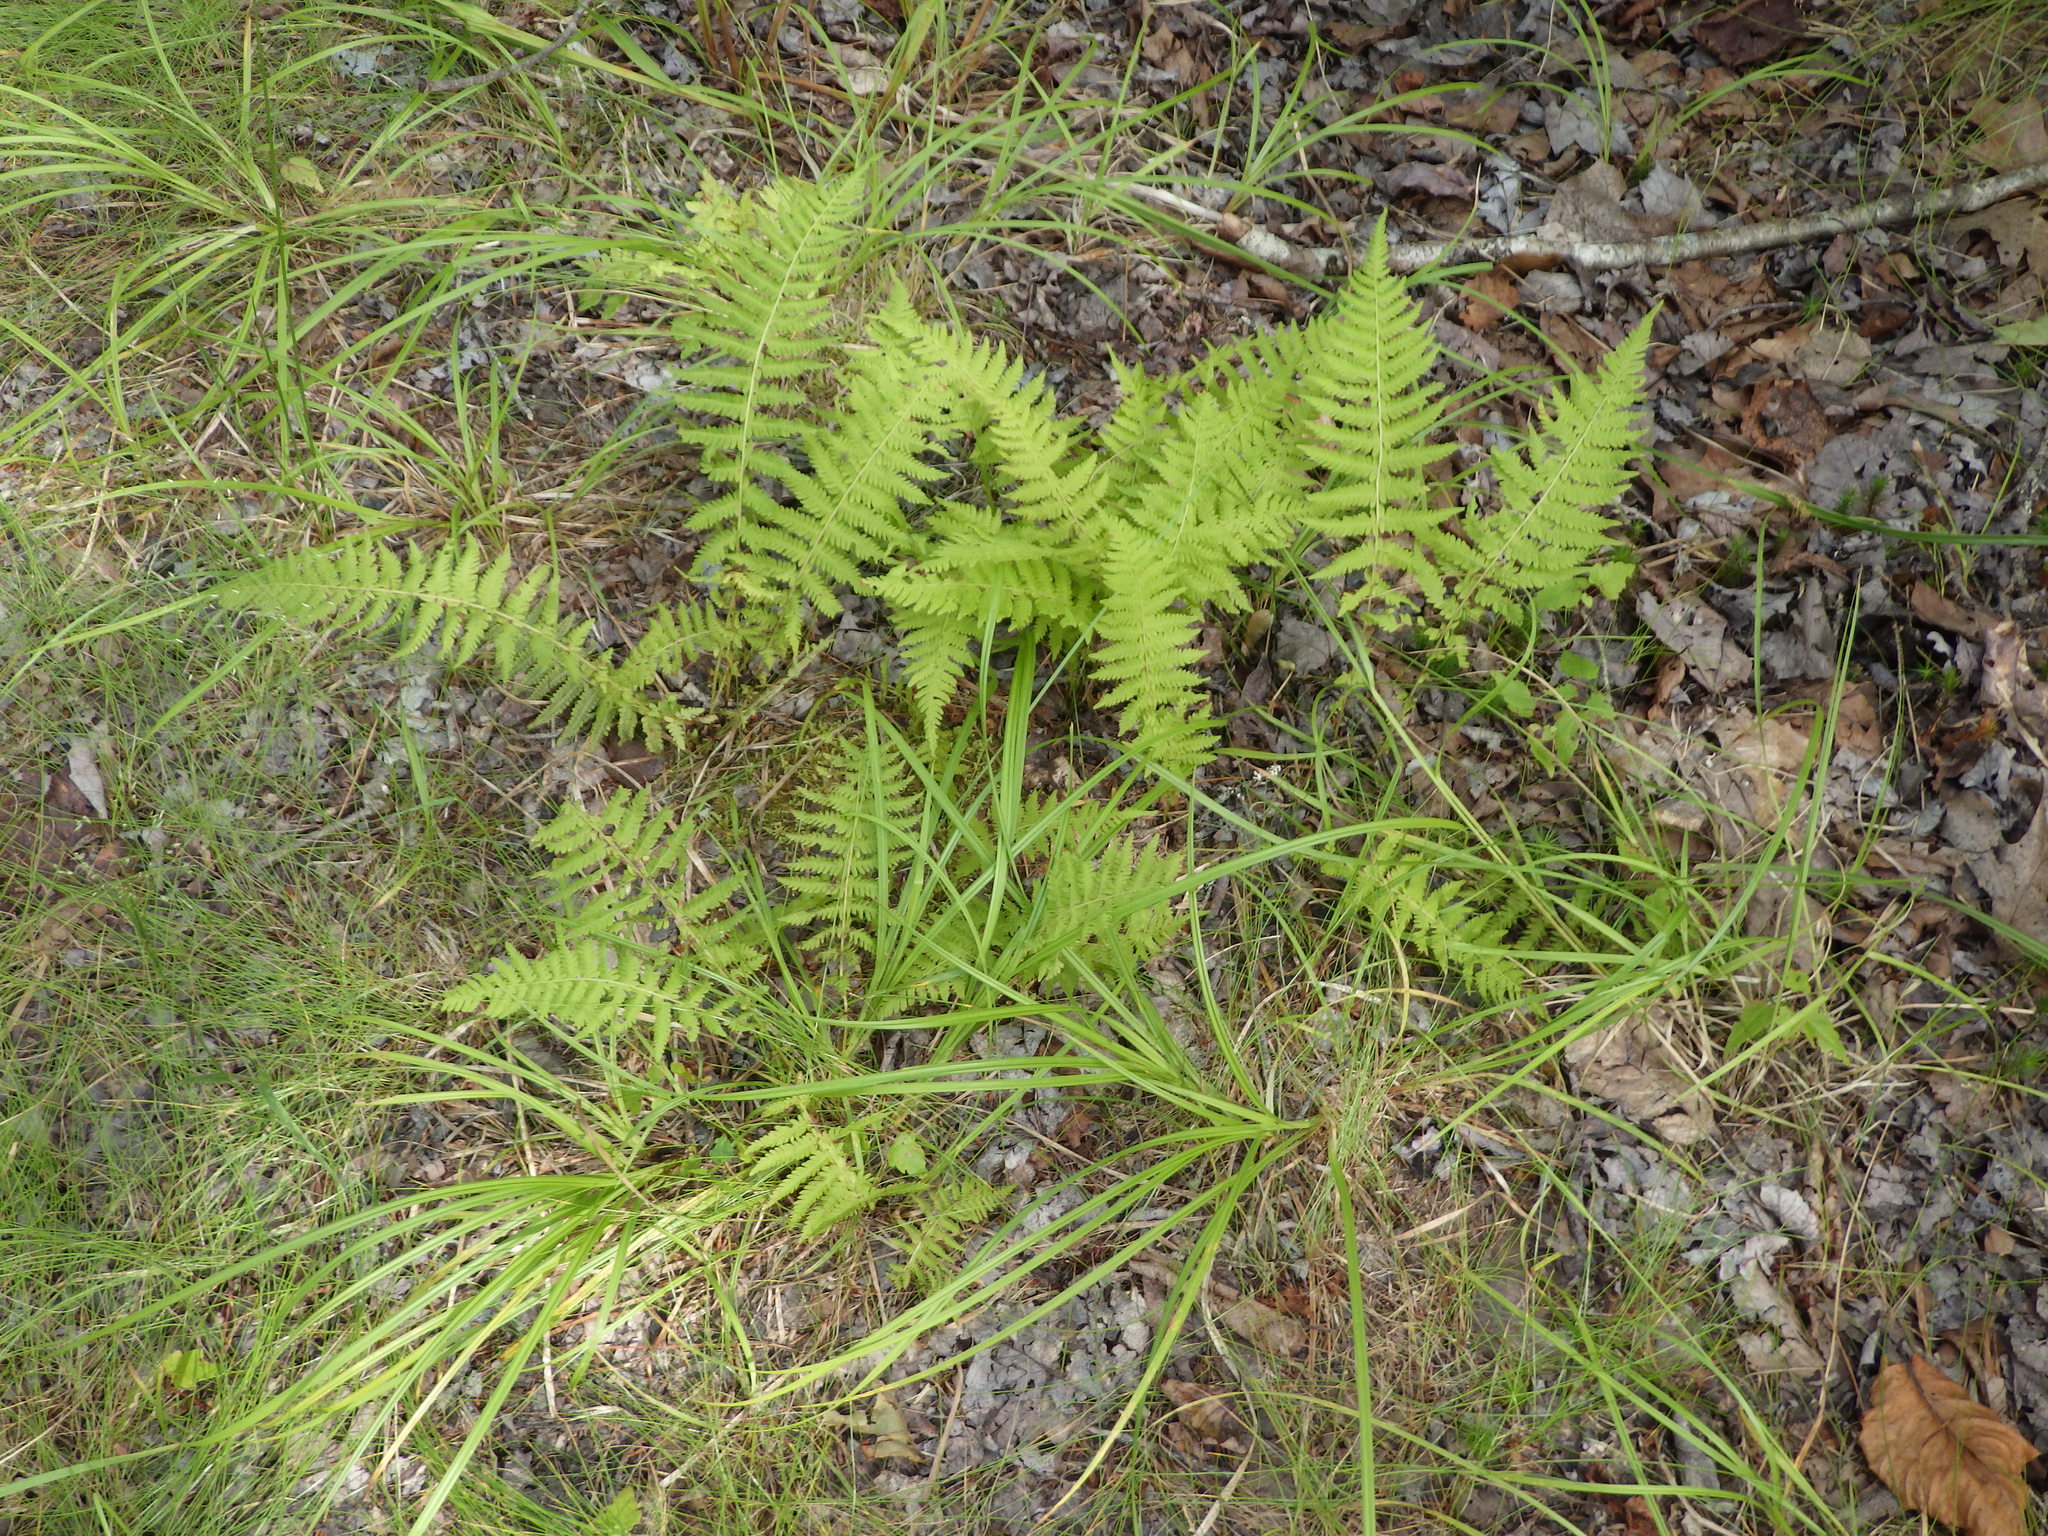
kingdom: Plantae
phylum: Tracheophyta
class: Polypodiopsida
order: Polypodiales
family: Thelypteridaceae
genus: Amauropelta
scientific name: Amauropelta noveboracensis
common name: New york fern
